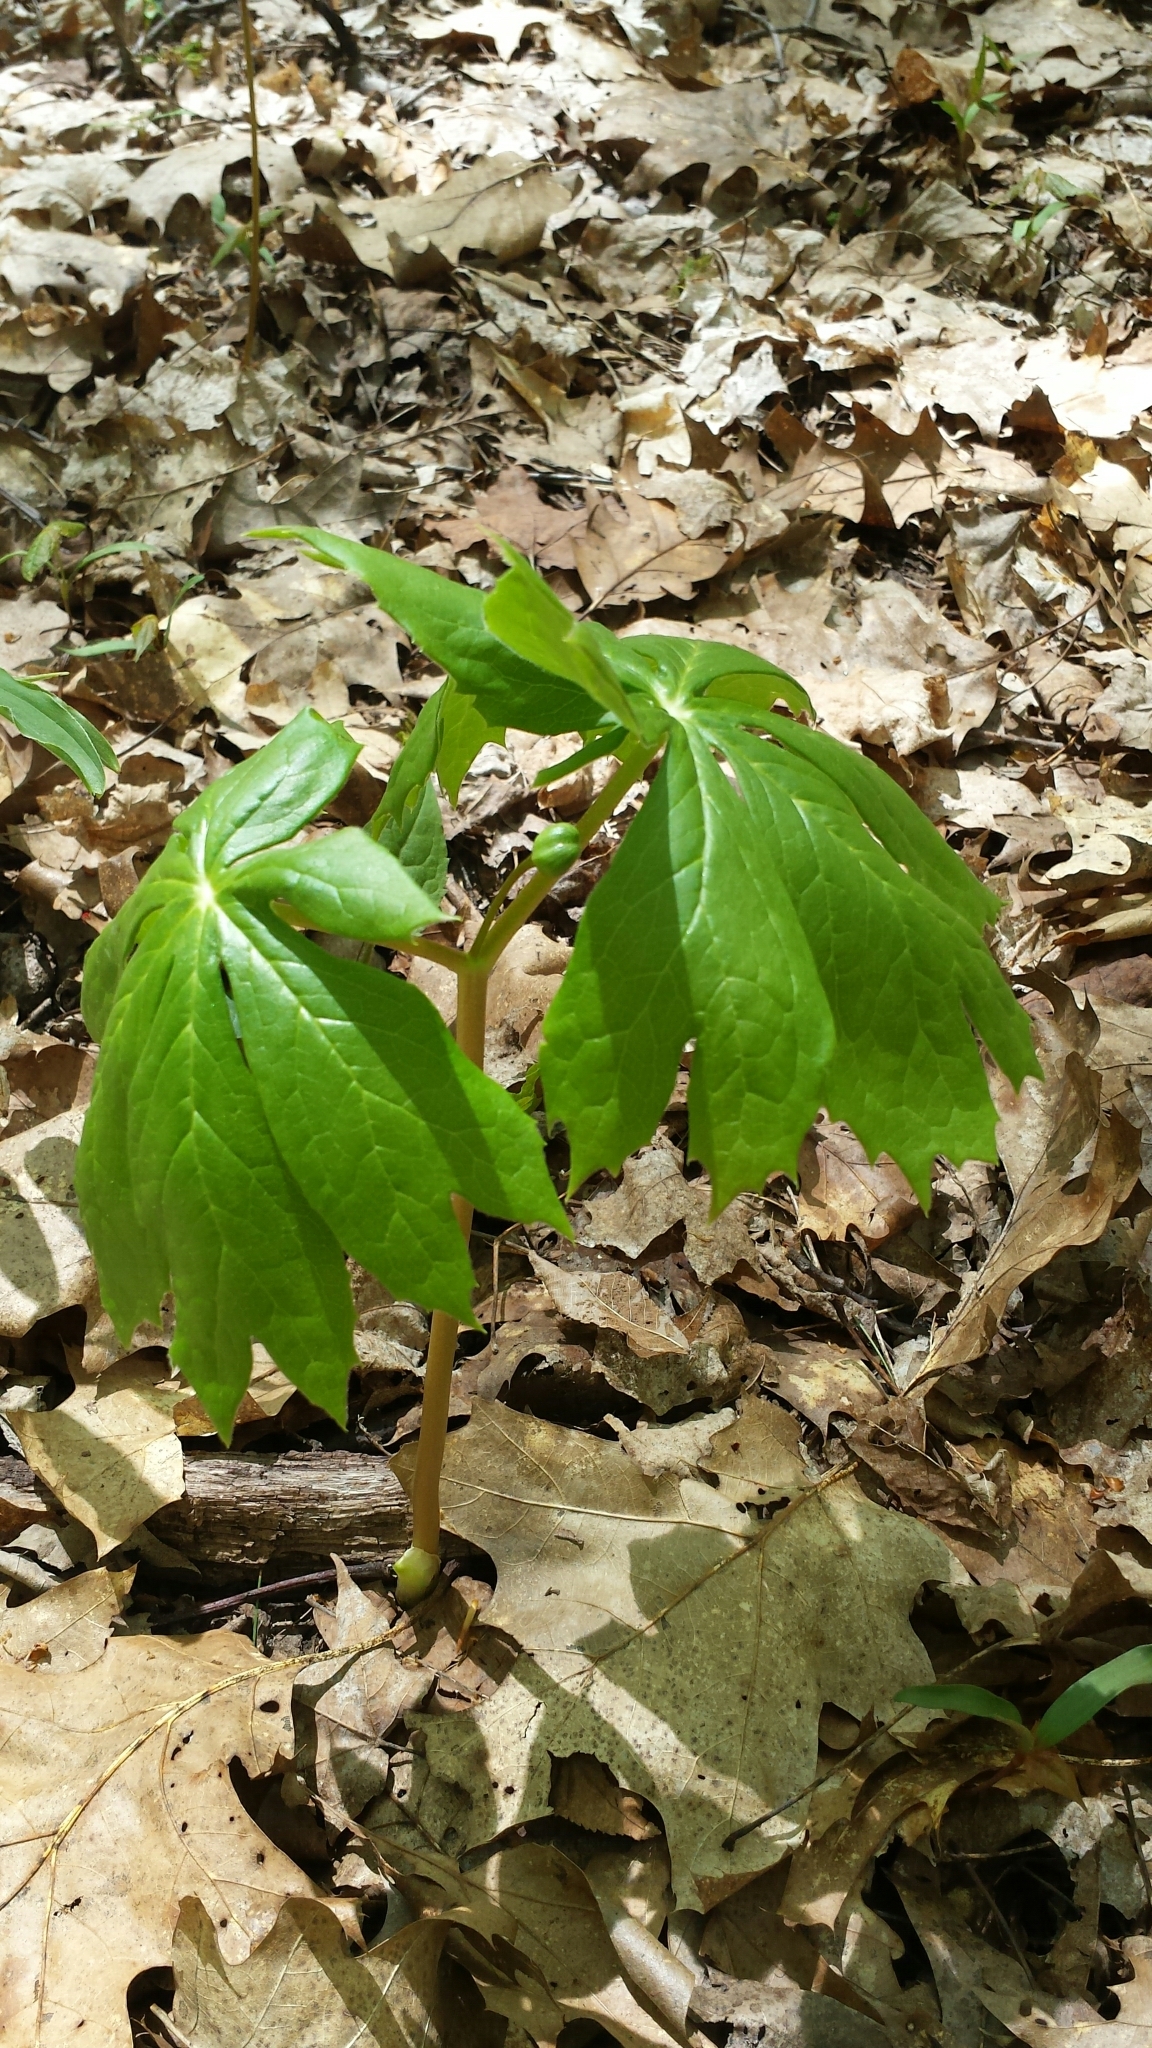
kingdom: Plantae
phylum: Tracheophyta
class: Magnoliopsida
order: Ranunculales
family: Berberidaceae
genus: Podophyllum
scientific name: Podophyllum peltatum
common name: Wild mandrake
